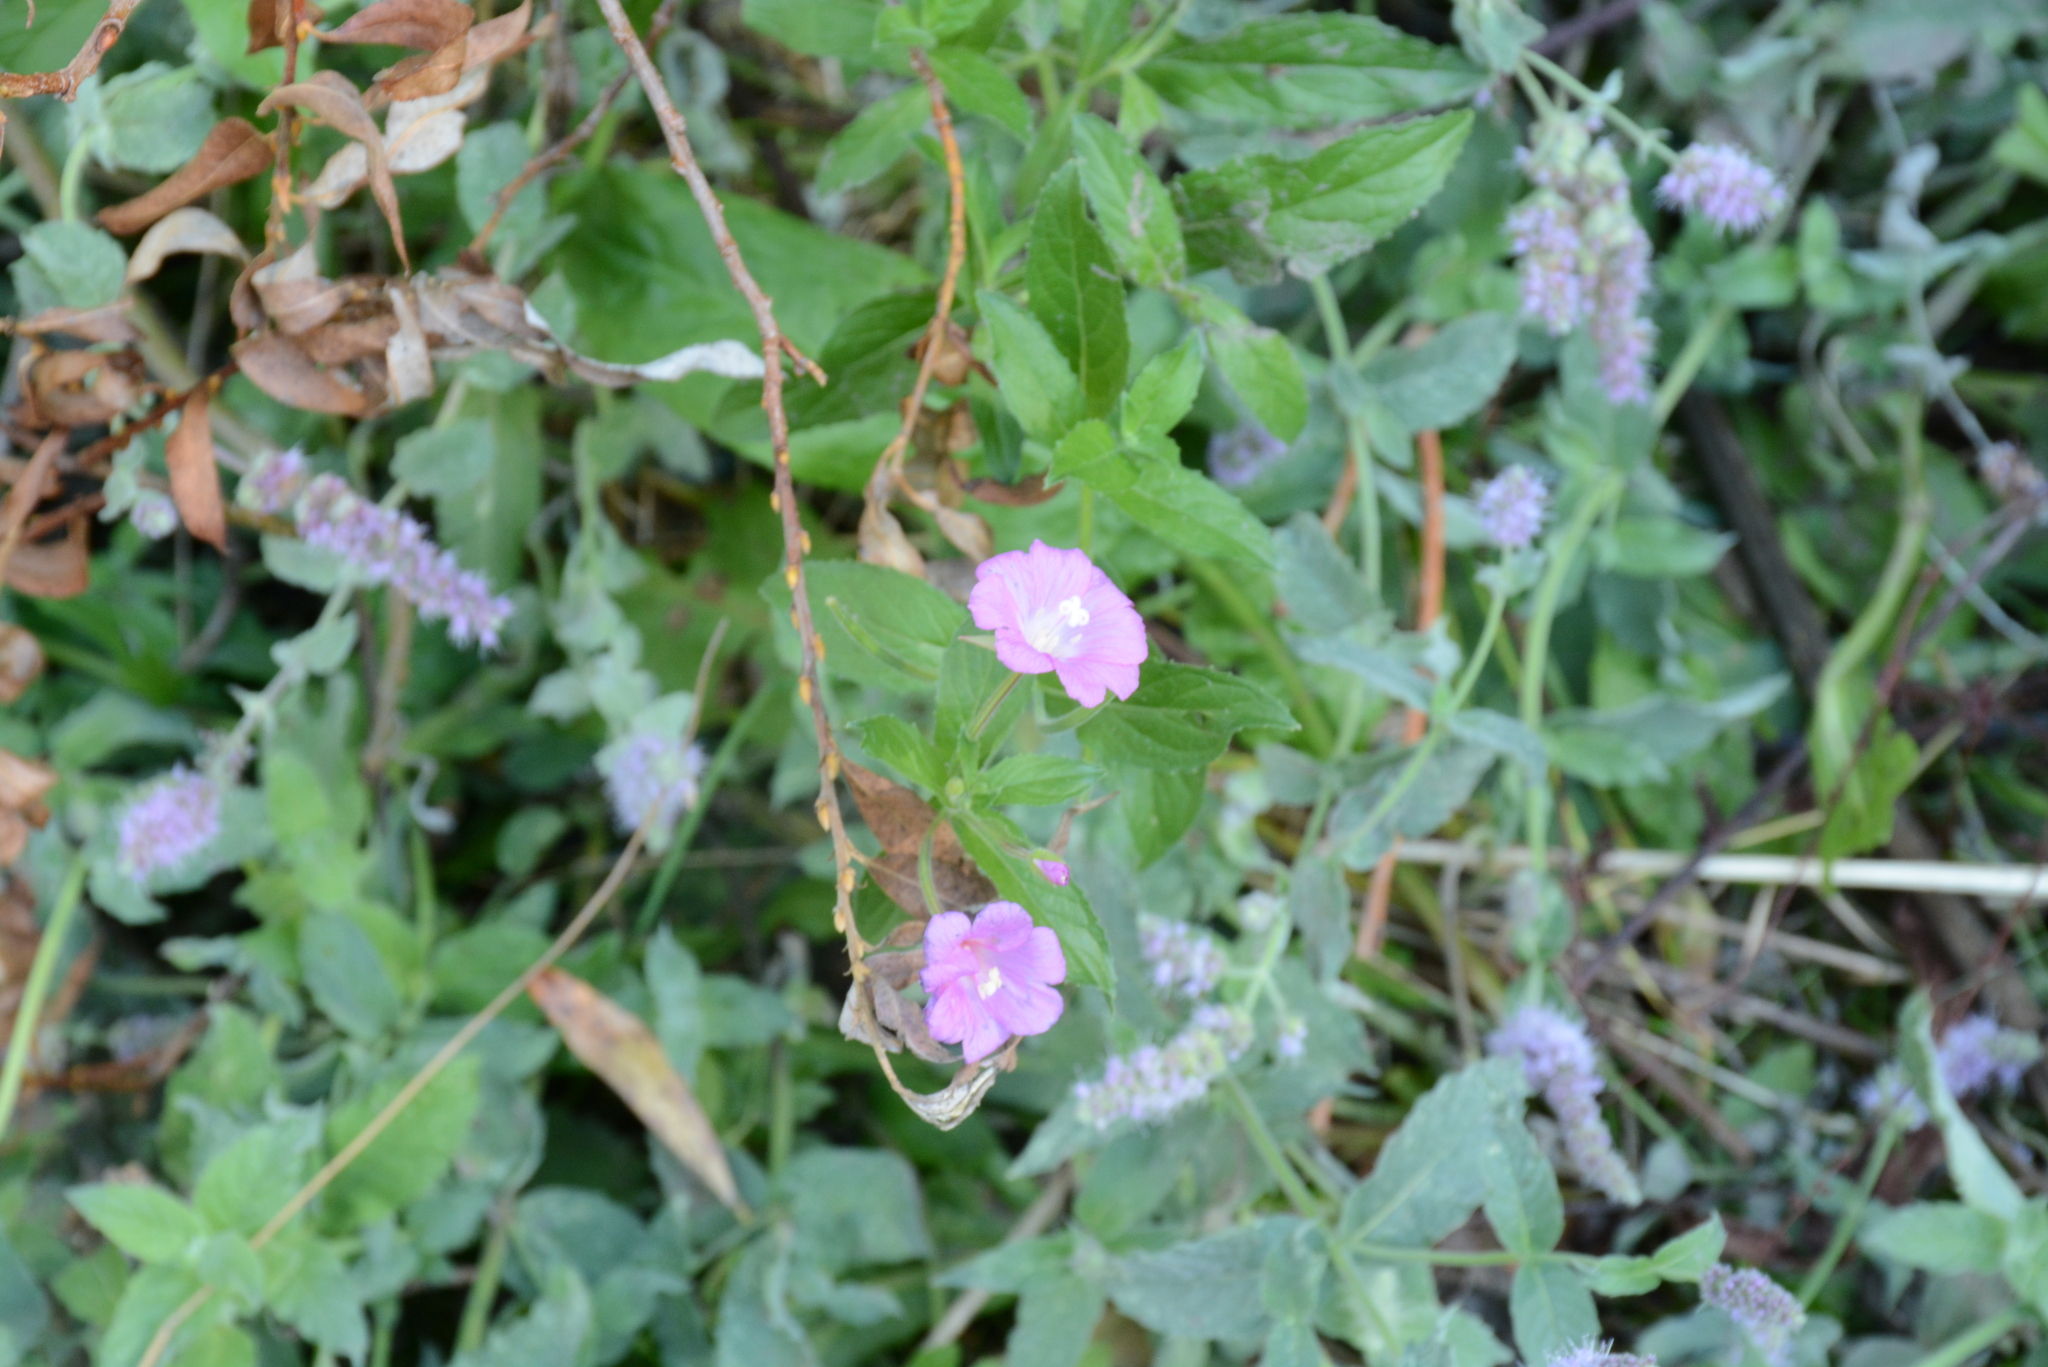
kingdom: Plantae
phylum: Tracheophyta
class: Magnoliopsida
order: Myrtales
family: Onagraceae
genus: Epilobium
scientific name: Epilobium hirsutum
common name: Great willowherb
